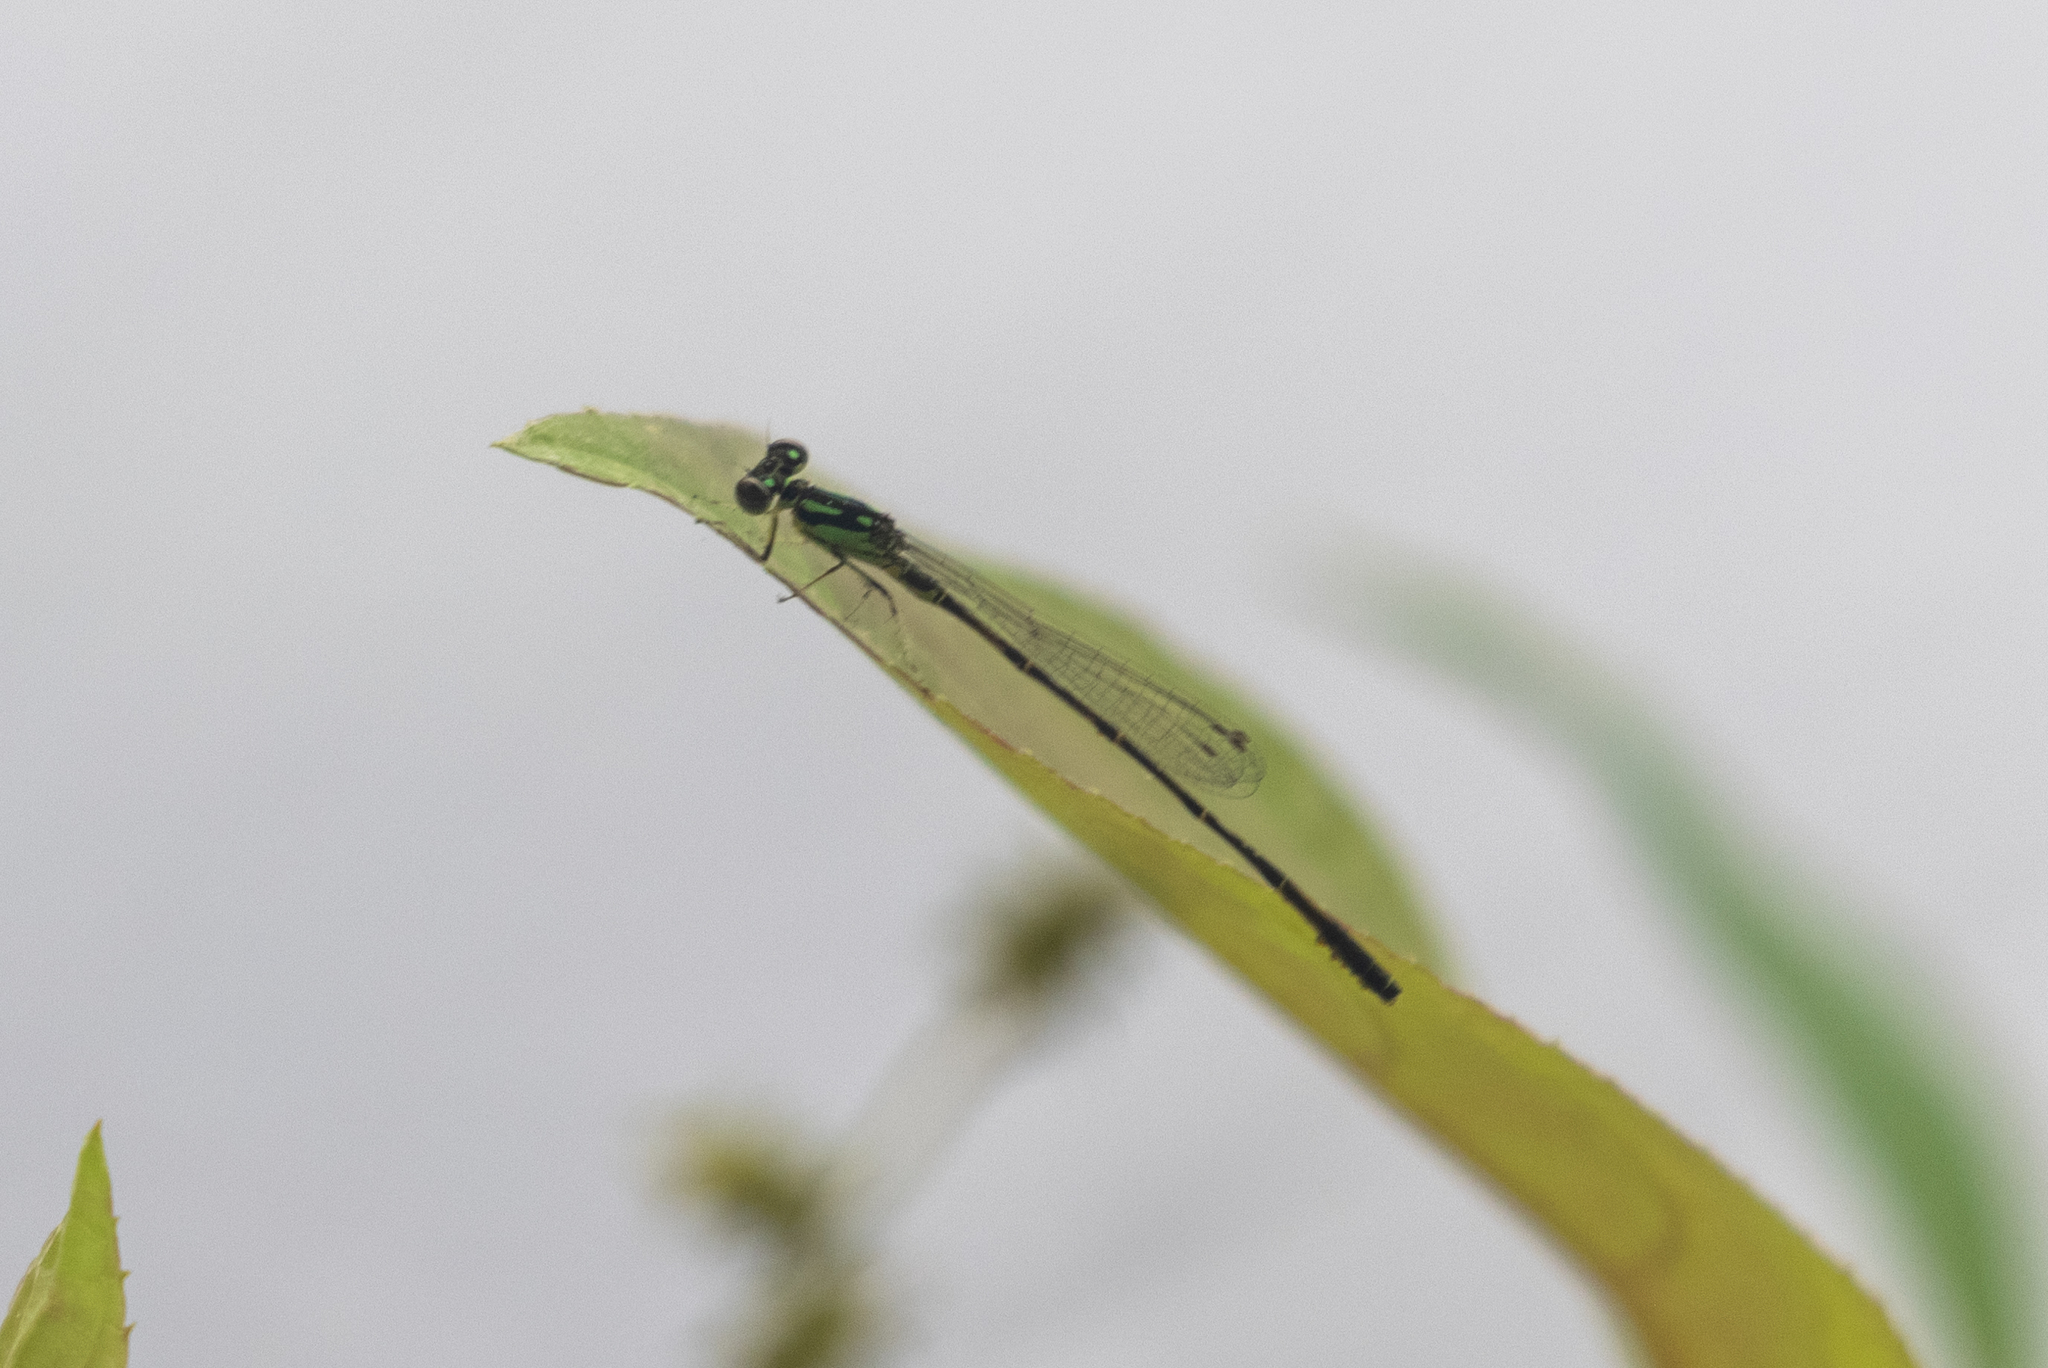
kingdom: Animalia
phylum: Arthropoda
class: Insecta
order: Odonata
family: Coenagrionidae
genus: Ischnura
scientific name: Ischnura posita
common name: Fragile forktail
